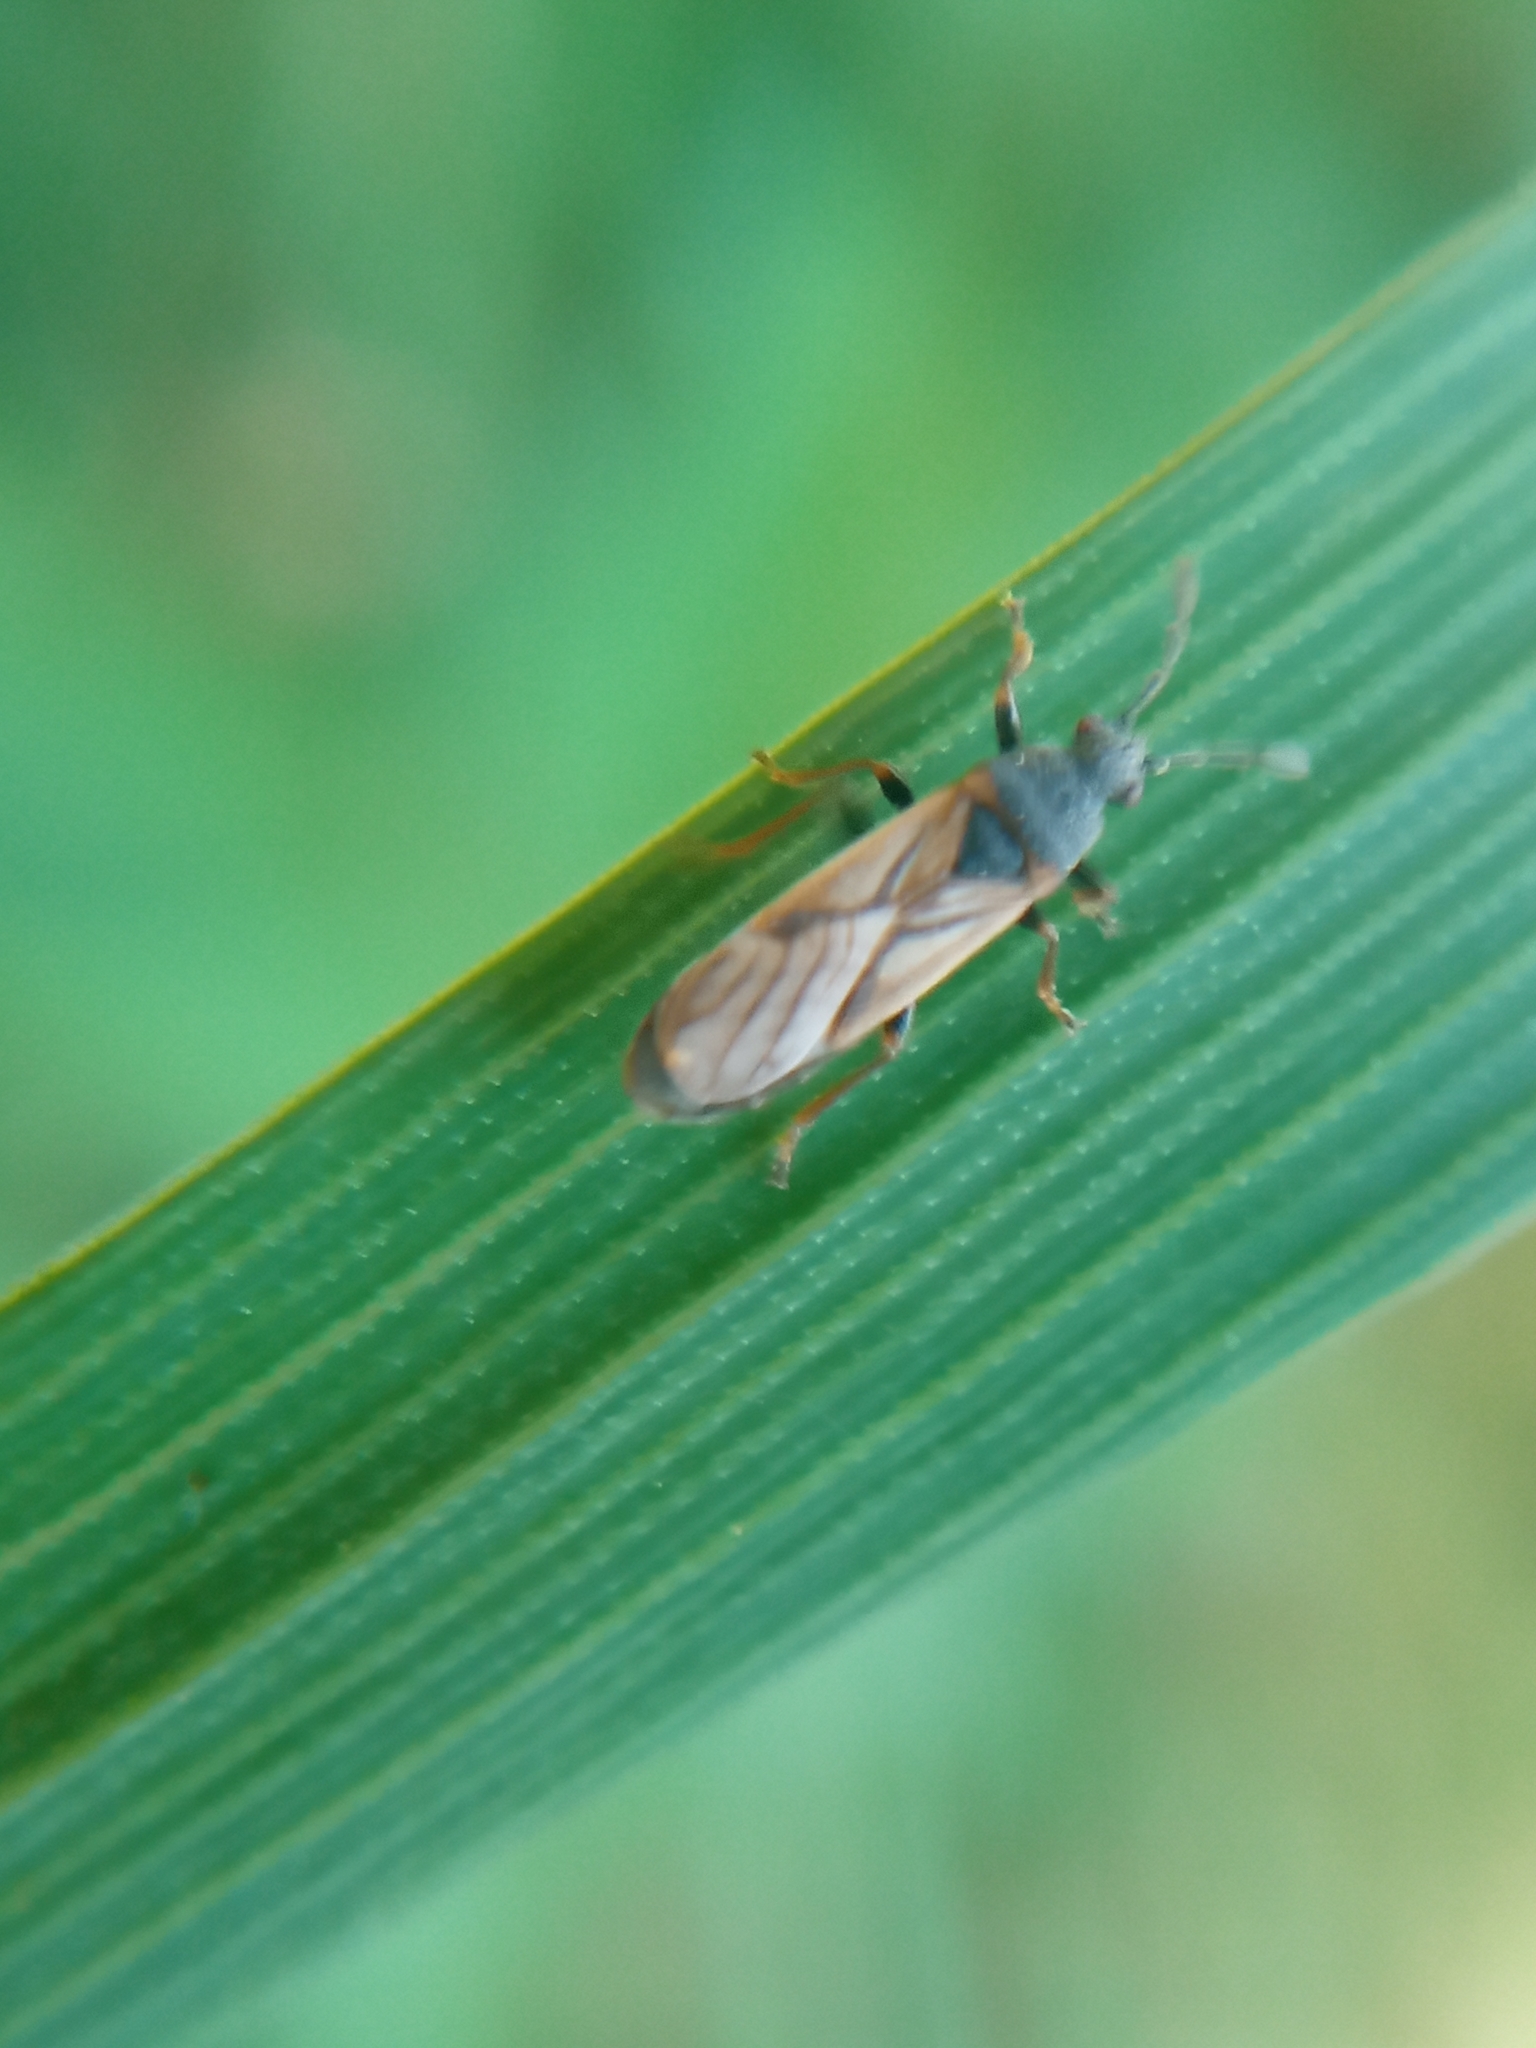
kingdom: Animalia
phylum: Arthropoda
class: Insecta
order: Hemiptera
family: Blissidae
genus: Ischnodemus
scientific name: Ischnodemus sabuleti
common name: European cinchbug
